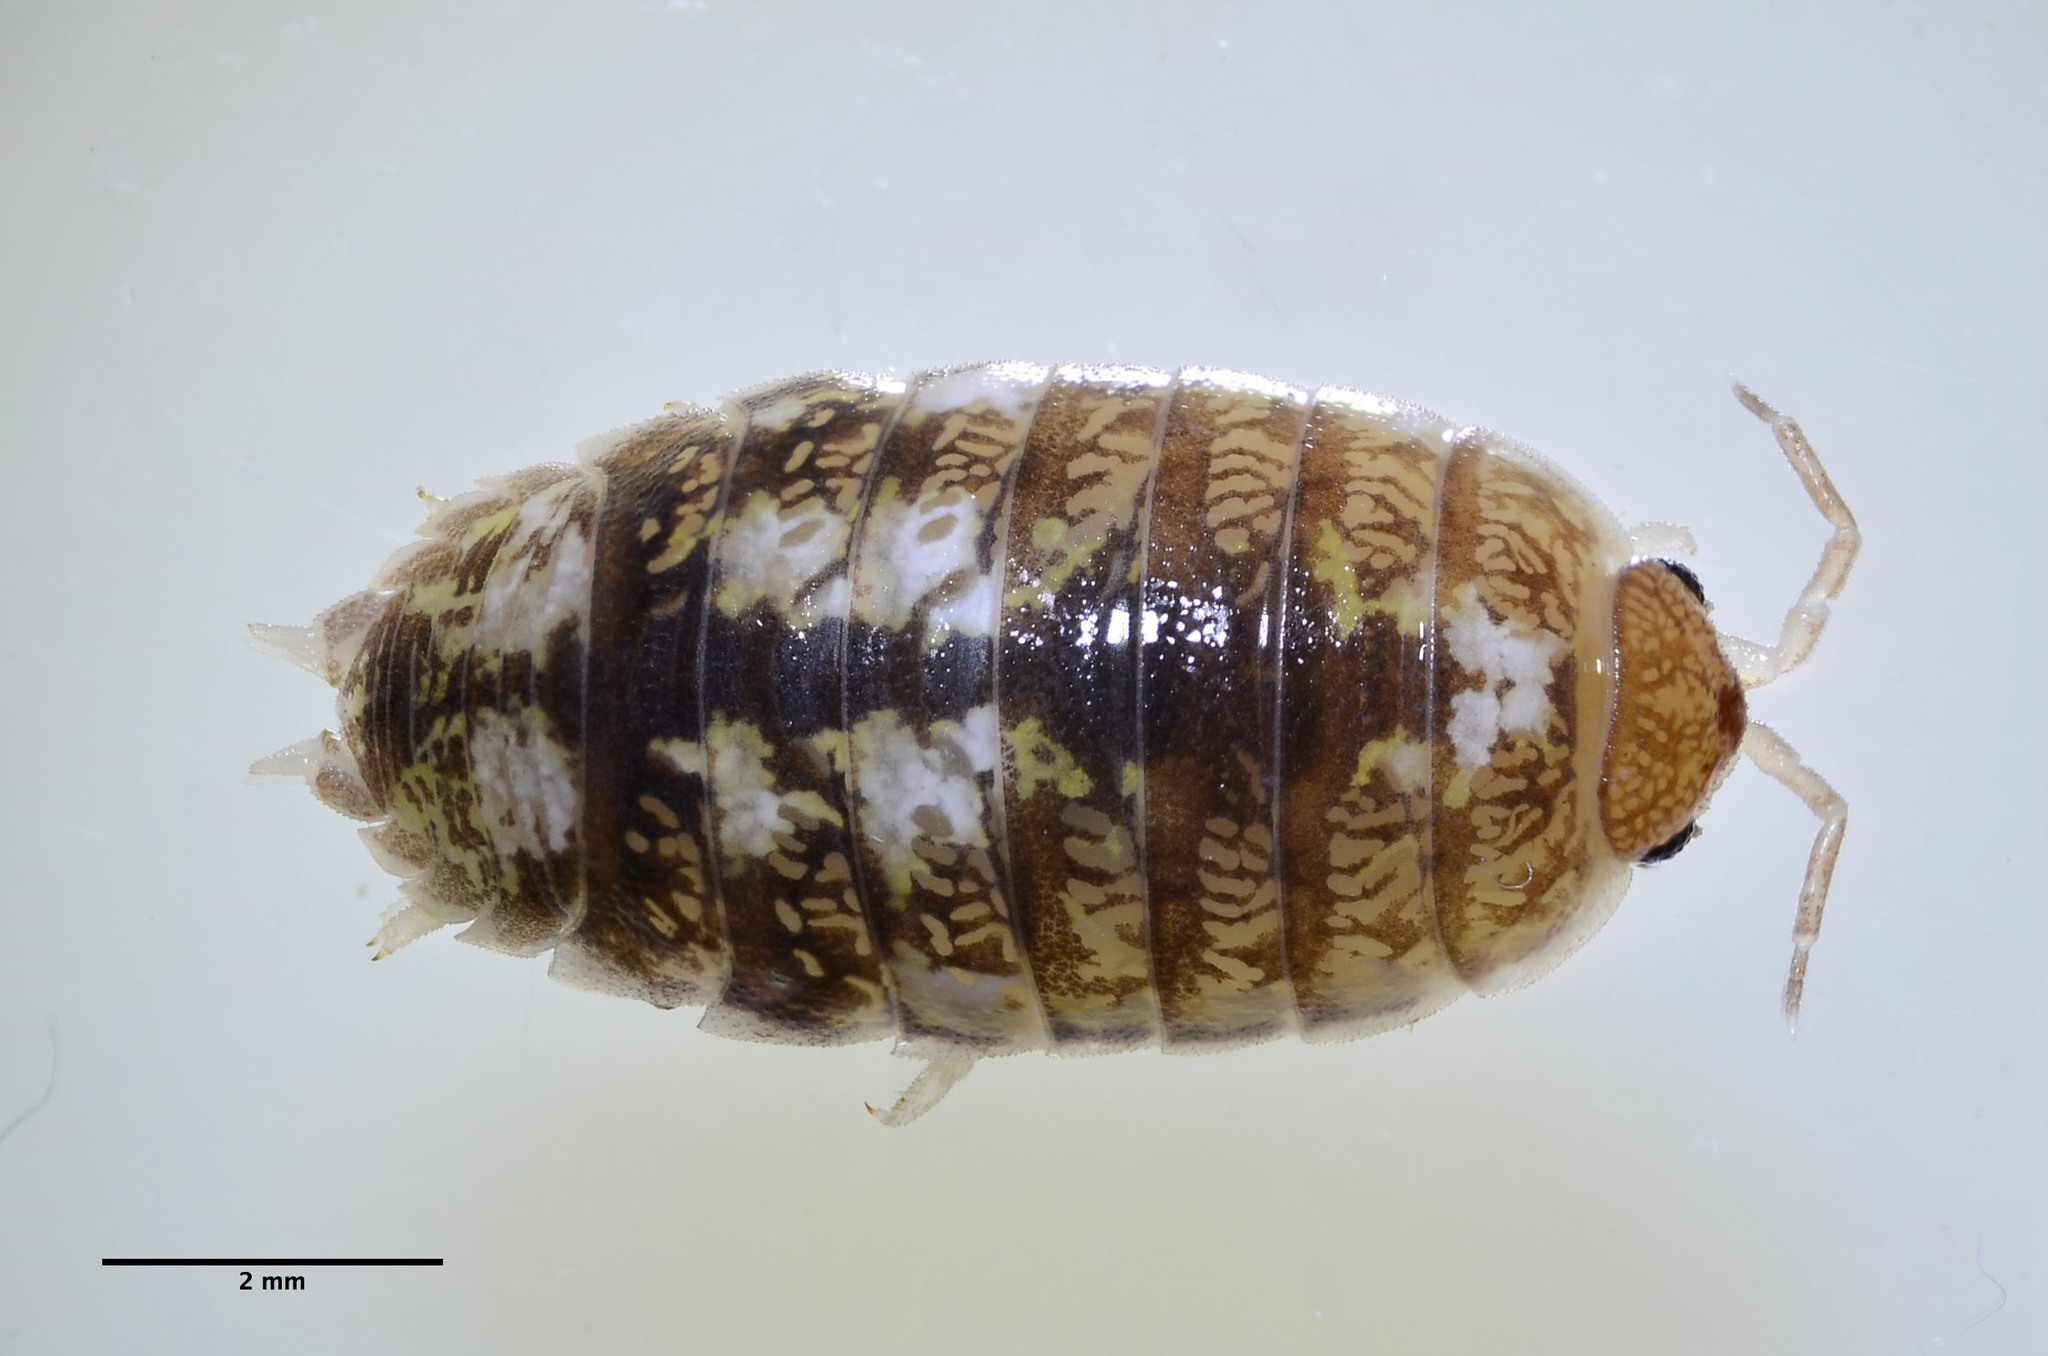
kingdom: Animalia
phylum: Arthropoda
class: Malacostraca
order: Isopoda
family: Alloniscidae
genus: Alloniscus
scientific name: Alloniscus perconvexus
